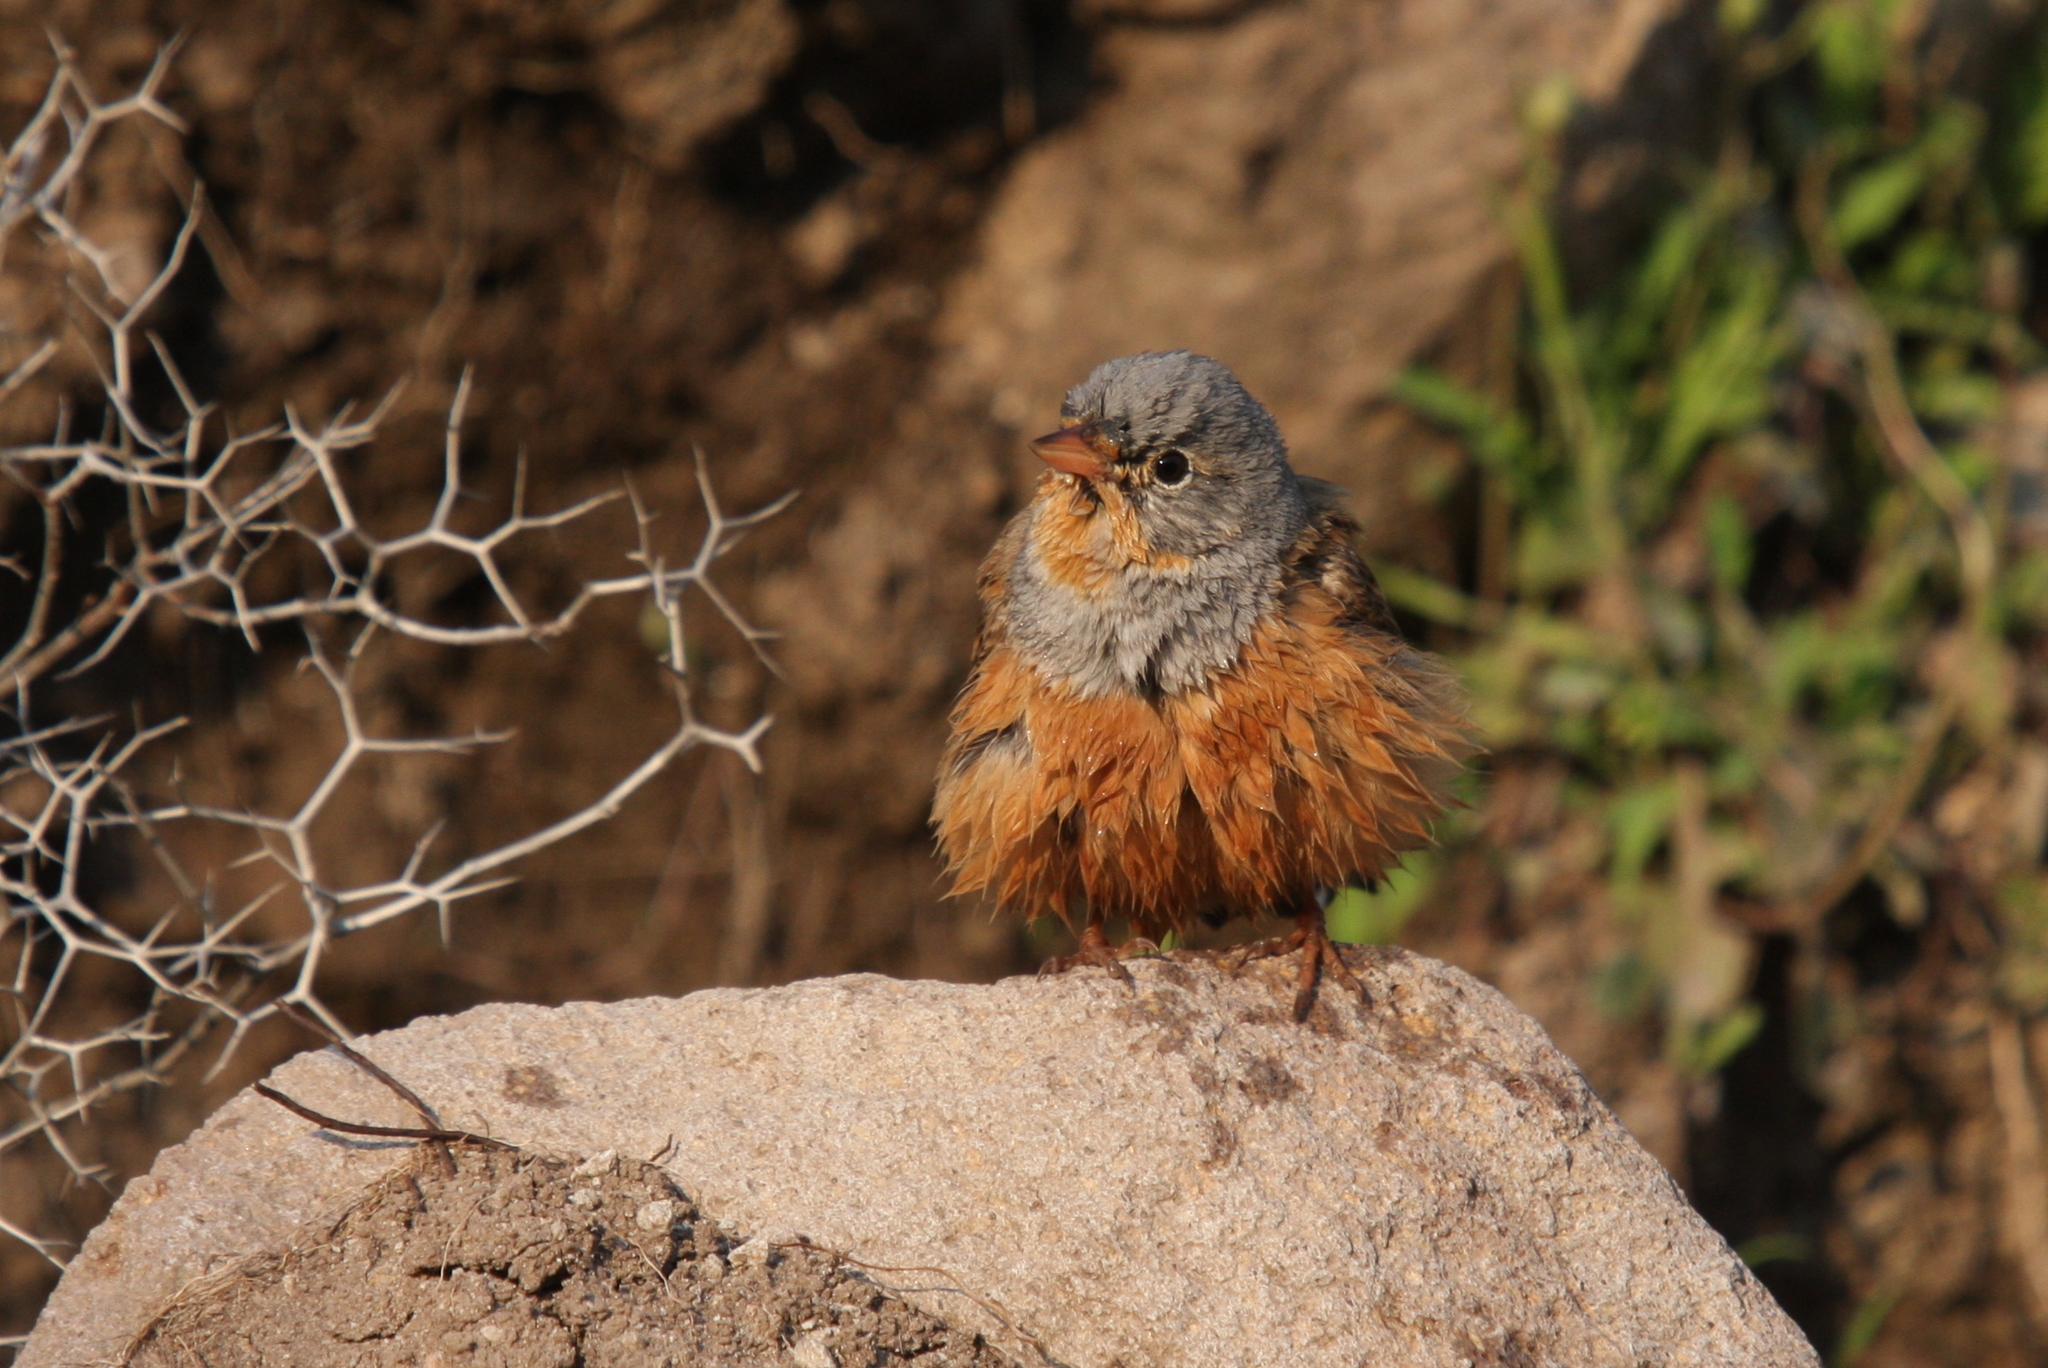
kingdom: Animalia
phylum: Chordata
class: Aves
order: Passeriformes
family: Emberizidae
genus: Emberiza
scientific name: Emberiza caesia
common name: Cretzschmar's bunting
